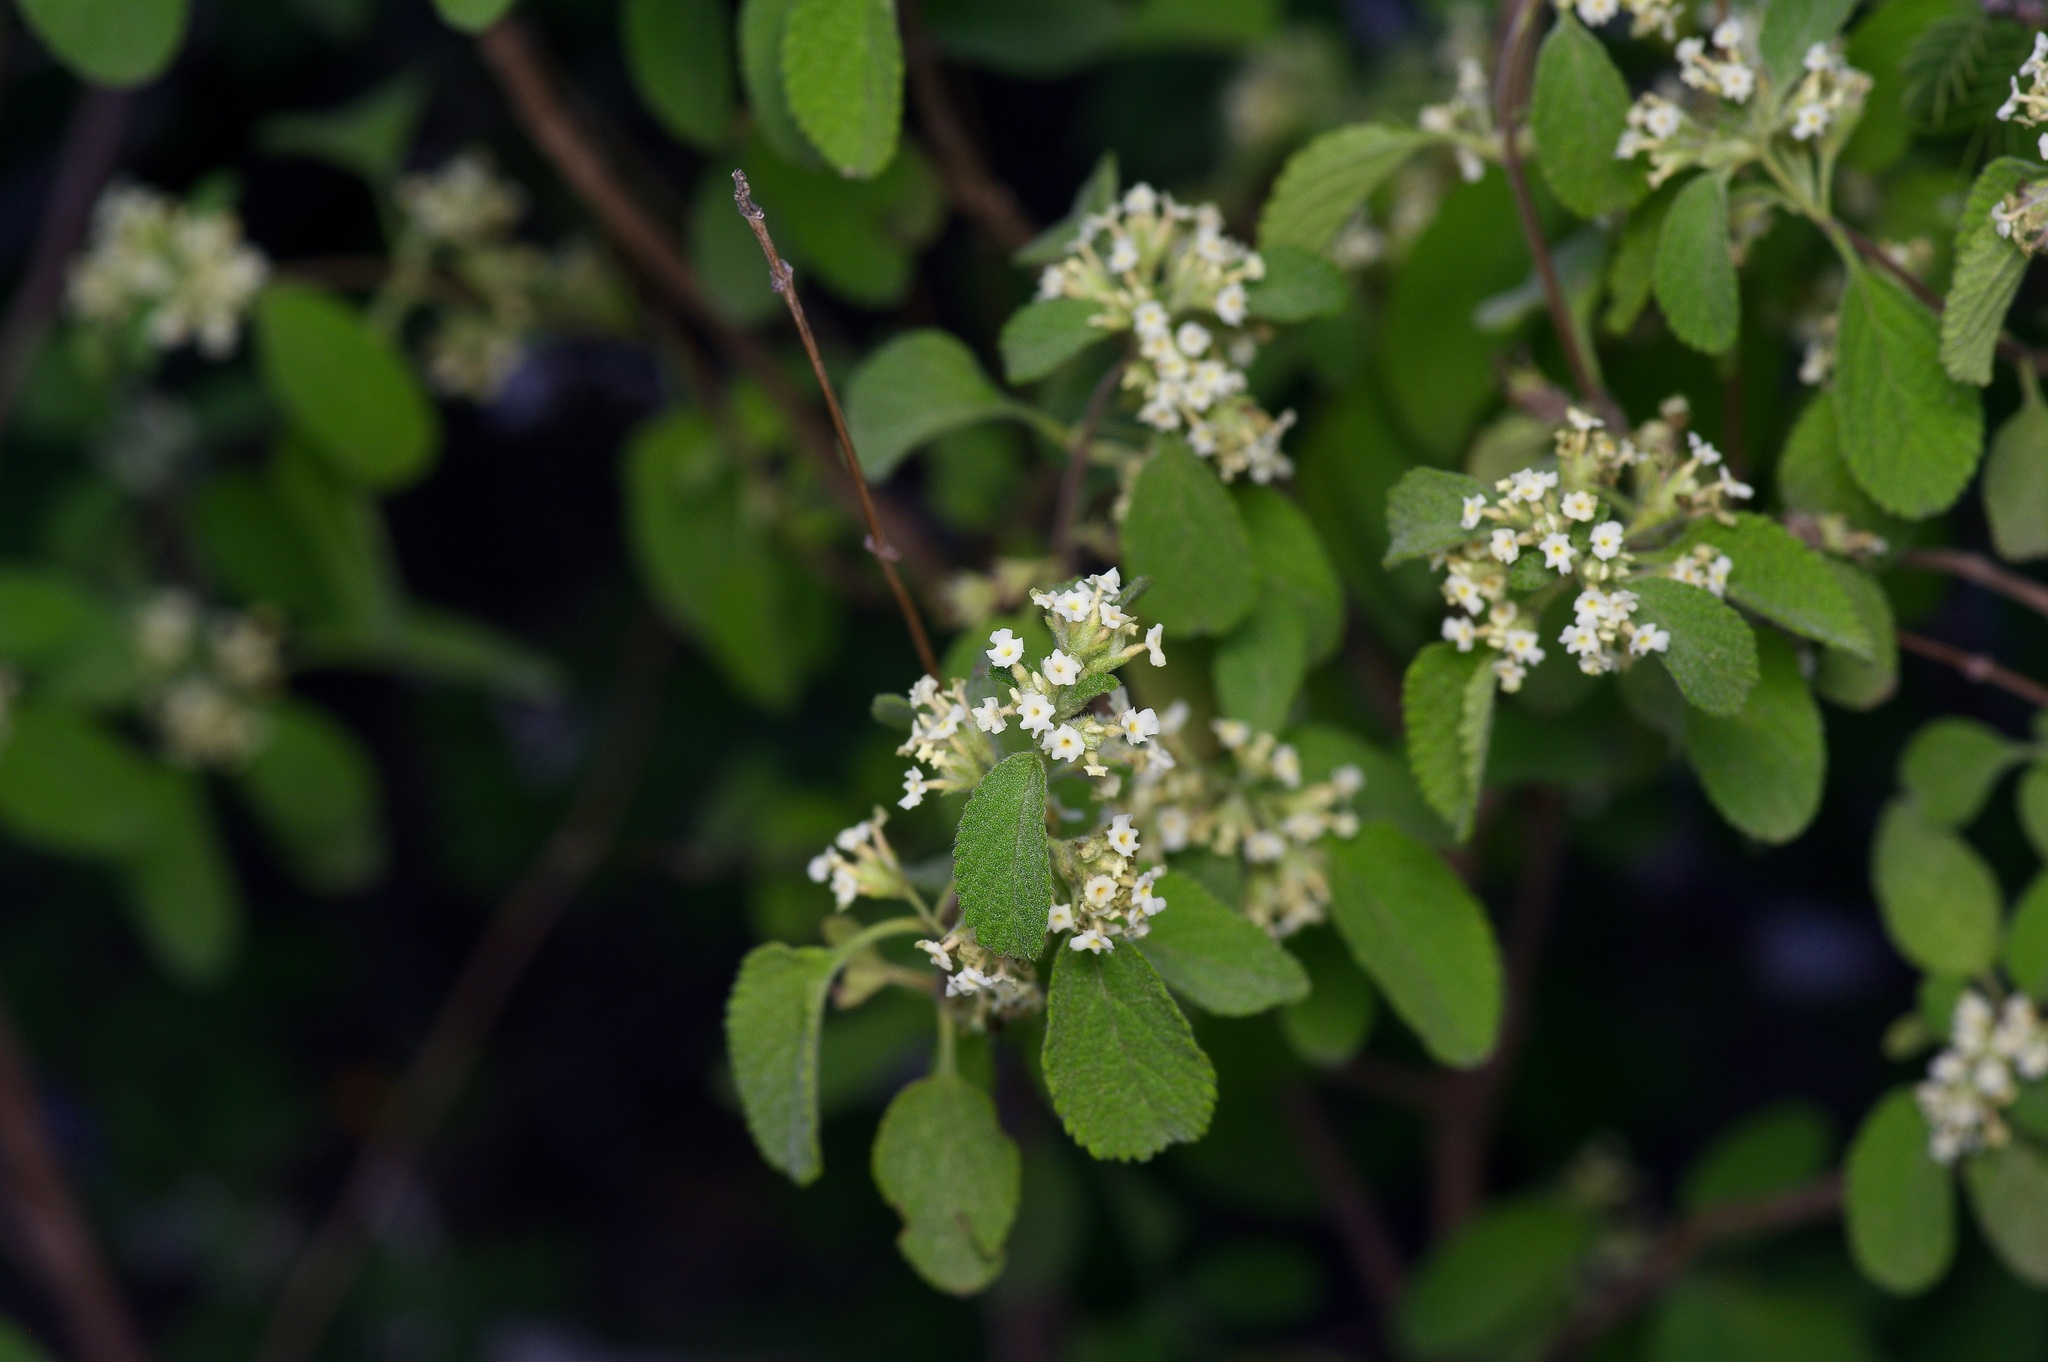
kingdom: Plantae
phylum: Tracheophyta
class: Magnoliopsida
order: Lamiales
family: Verbenaceae
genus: Lippia
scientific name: Lippia origanoides
